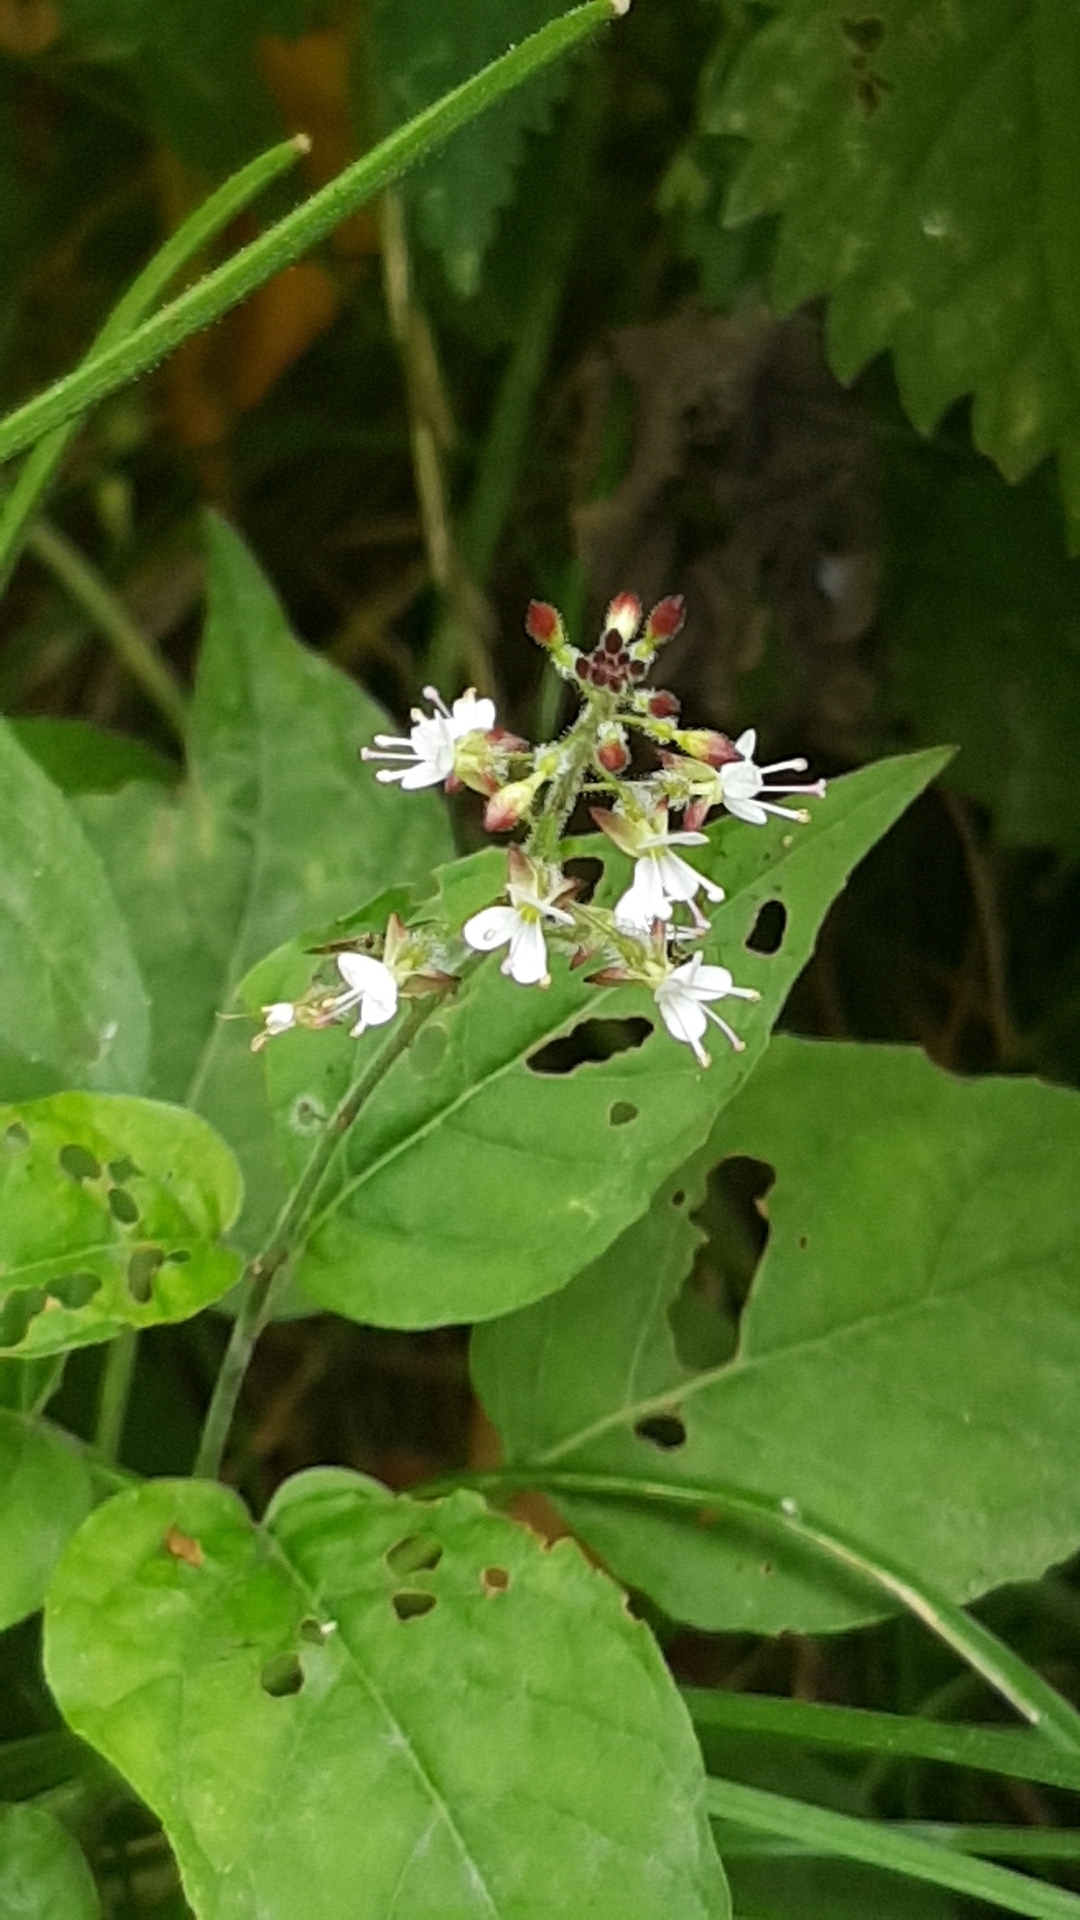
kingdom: Plantae
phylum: Tracheophyta
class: Magnoliopsida
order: Myrtales
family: Onagraceae
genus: Circaea
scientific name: Circaea lutetiana
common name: Enchanter's-nightshade
